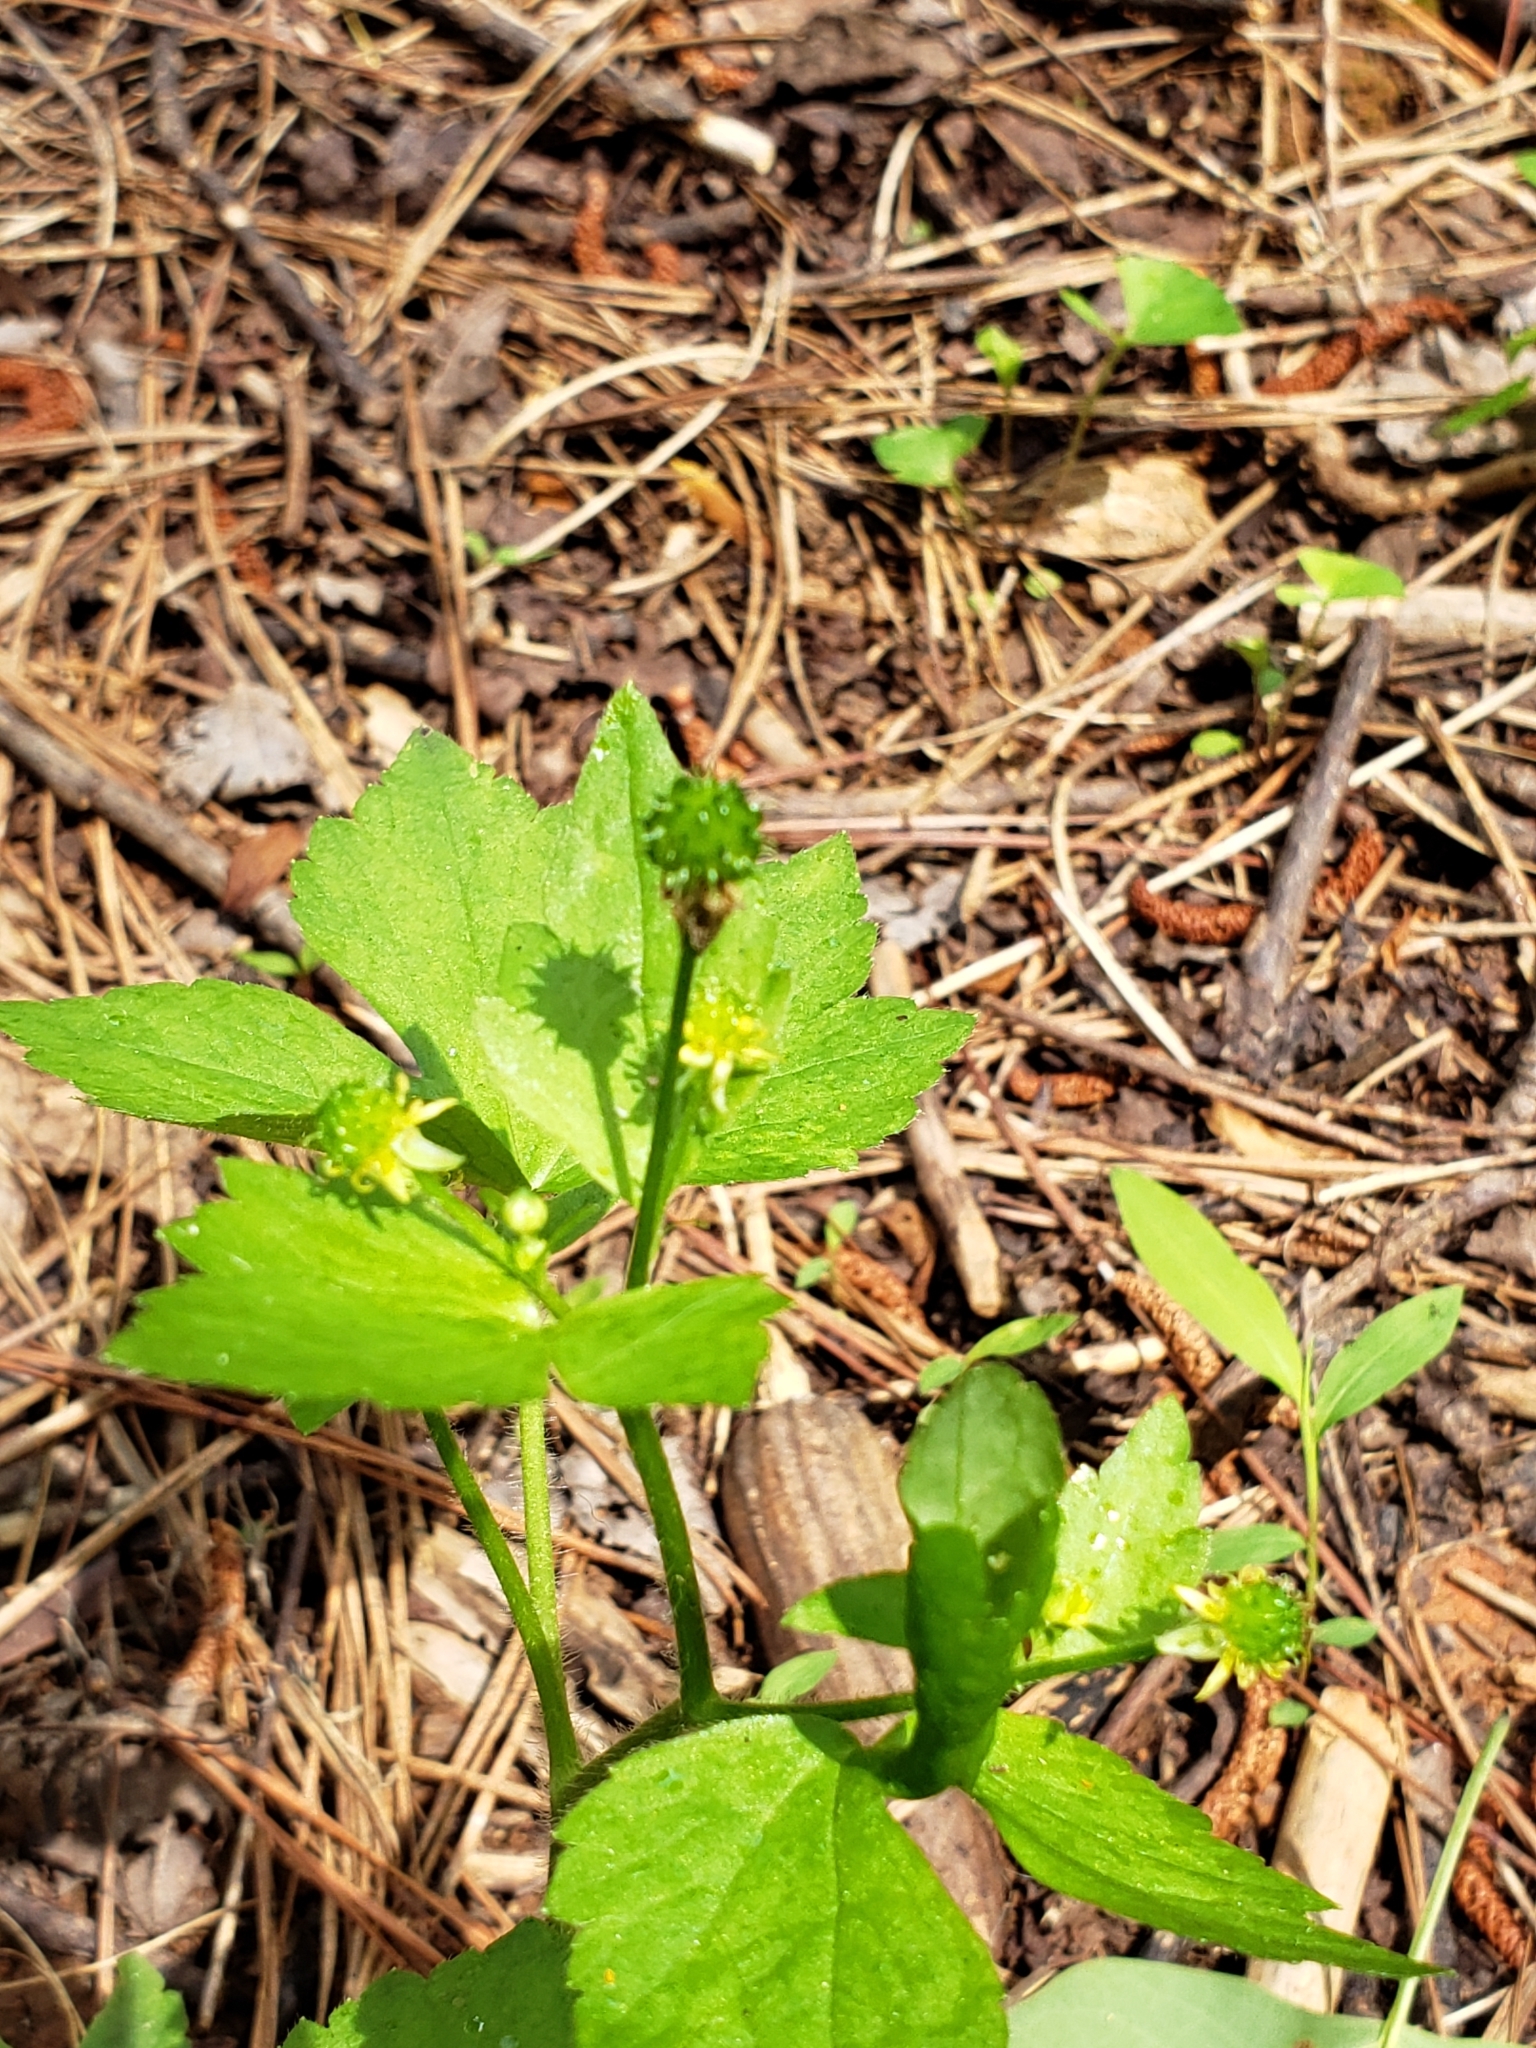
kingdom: Plantae
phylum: Tracheophyta
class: Magnoliopsida
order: Ranunculales
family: Ranunculaceae
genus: Ranunculus
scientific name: Ranunculus recurvatus
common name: Blisterwort
